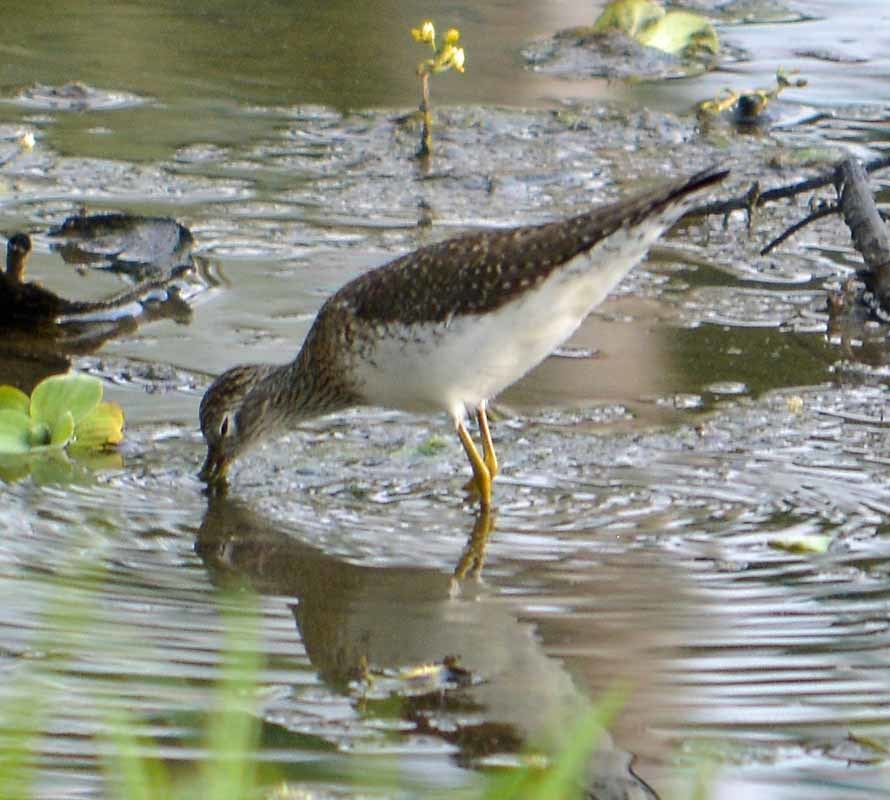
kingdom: Animalia
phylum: Chordata
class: Aves
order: Charadriiformes
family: Scolopacidae
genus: Tringa
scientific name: Tringa solitaria
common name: Solitary sandpiper
